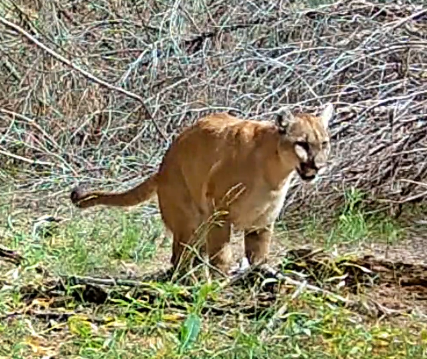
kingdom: Animalia
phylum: Chordata
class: Mammalia
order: Carnivora
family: Felidae
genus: Puma
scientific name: Puma concolor
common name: Puma
